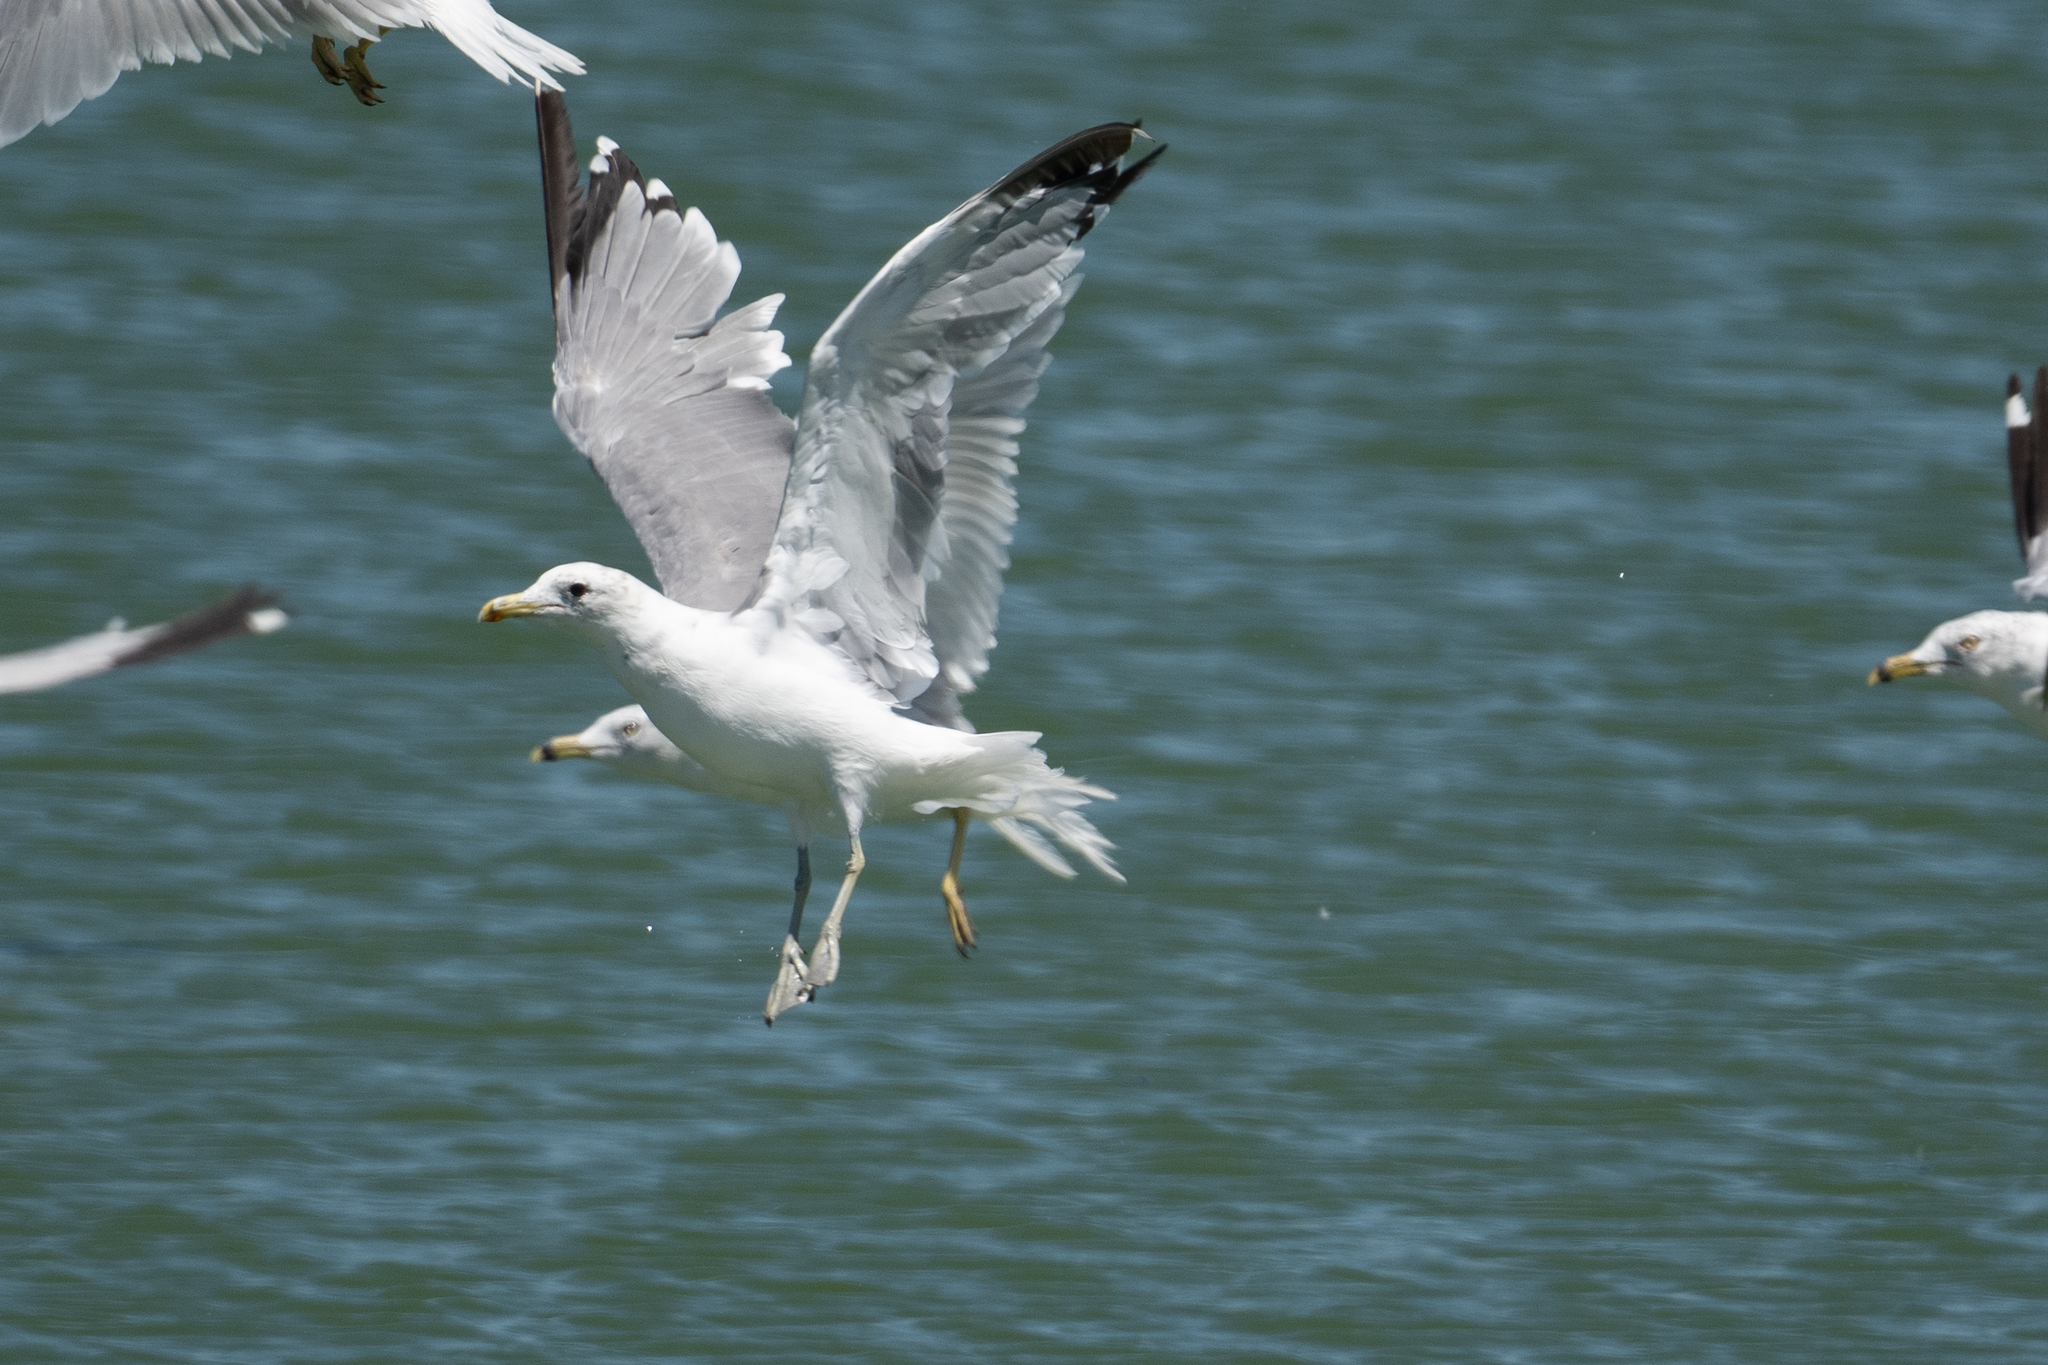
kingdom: Animalia
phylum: Chordata
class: Aves
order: Charadriiformes
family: Laridae
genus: Larus
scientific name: Larus californicus
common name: California gull
